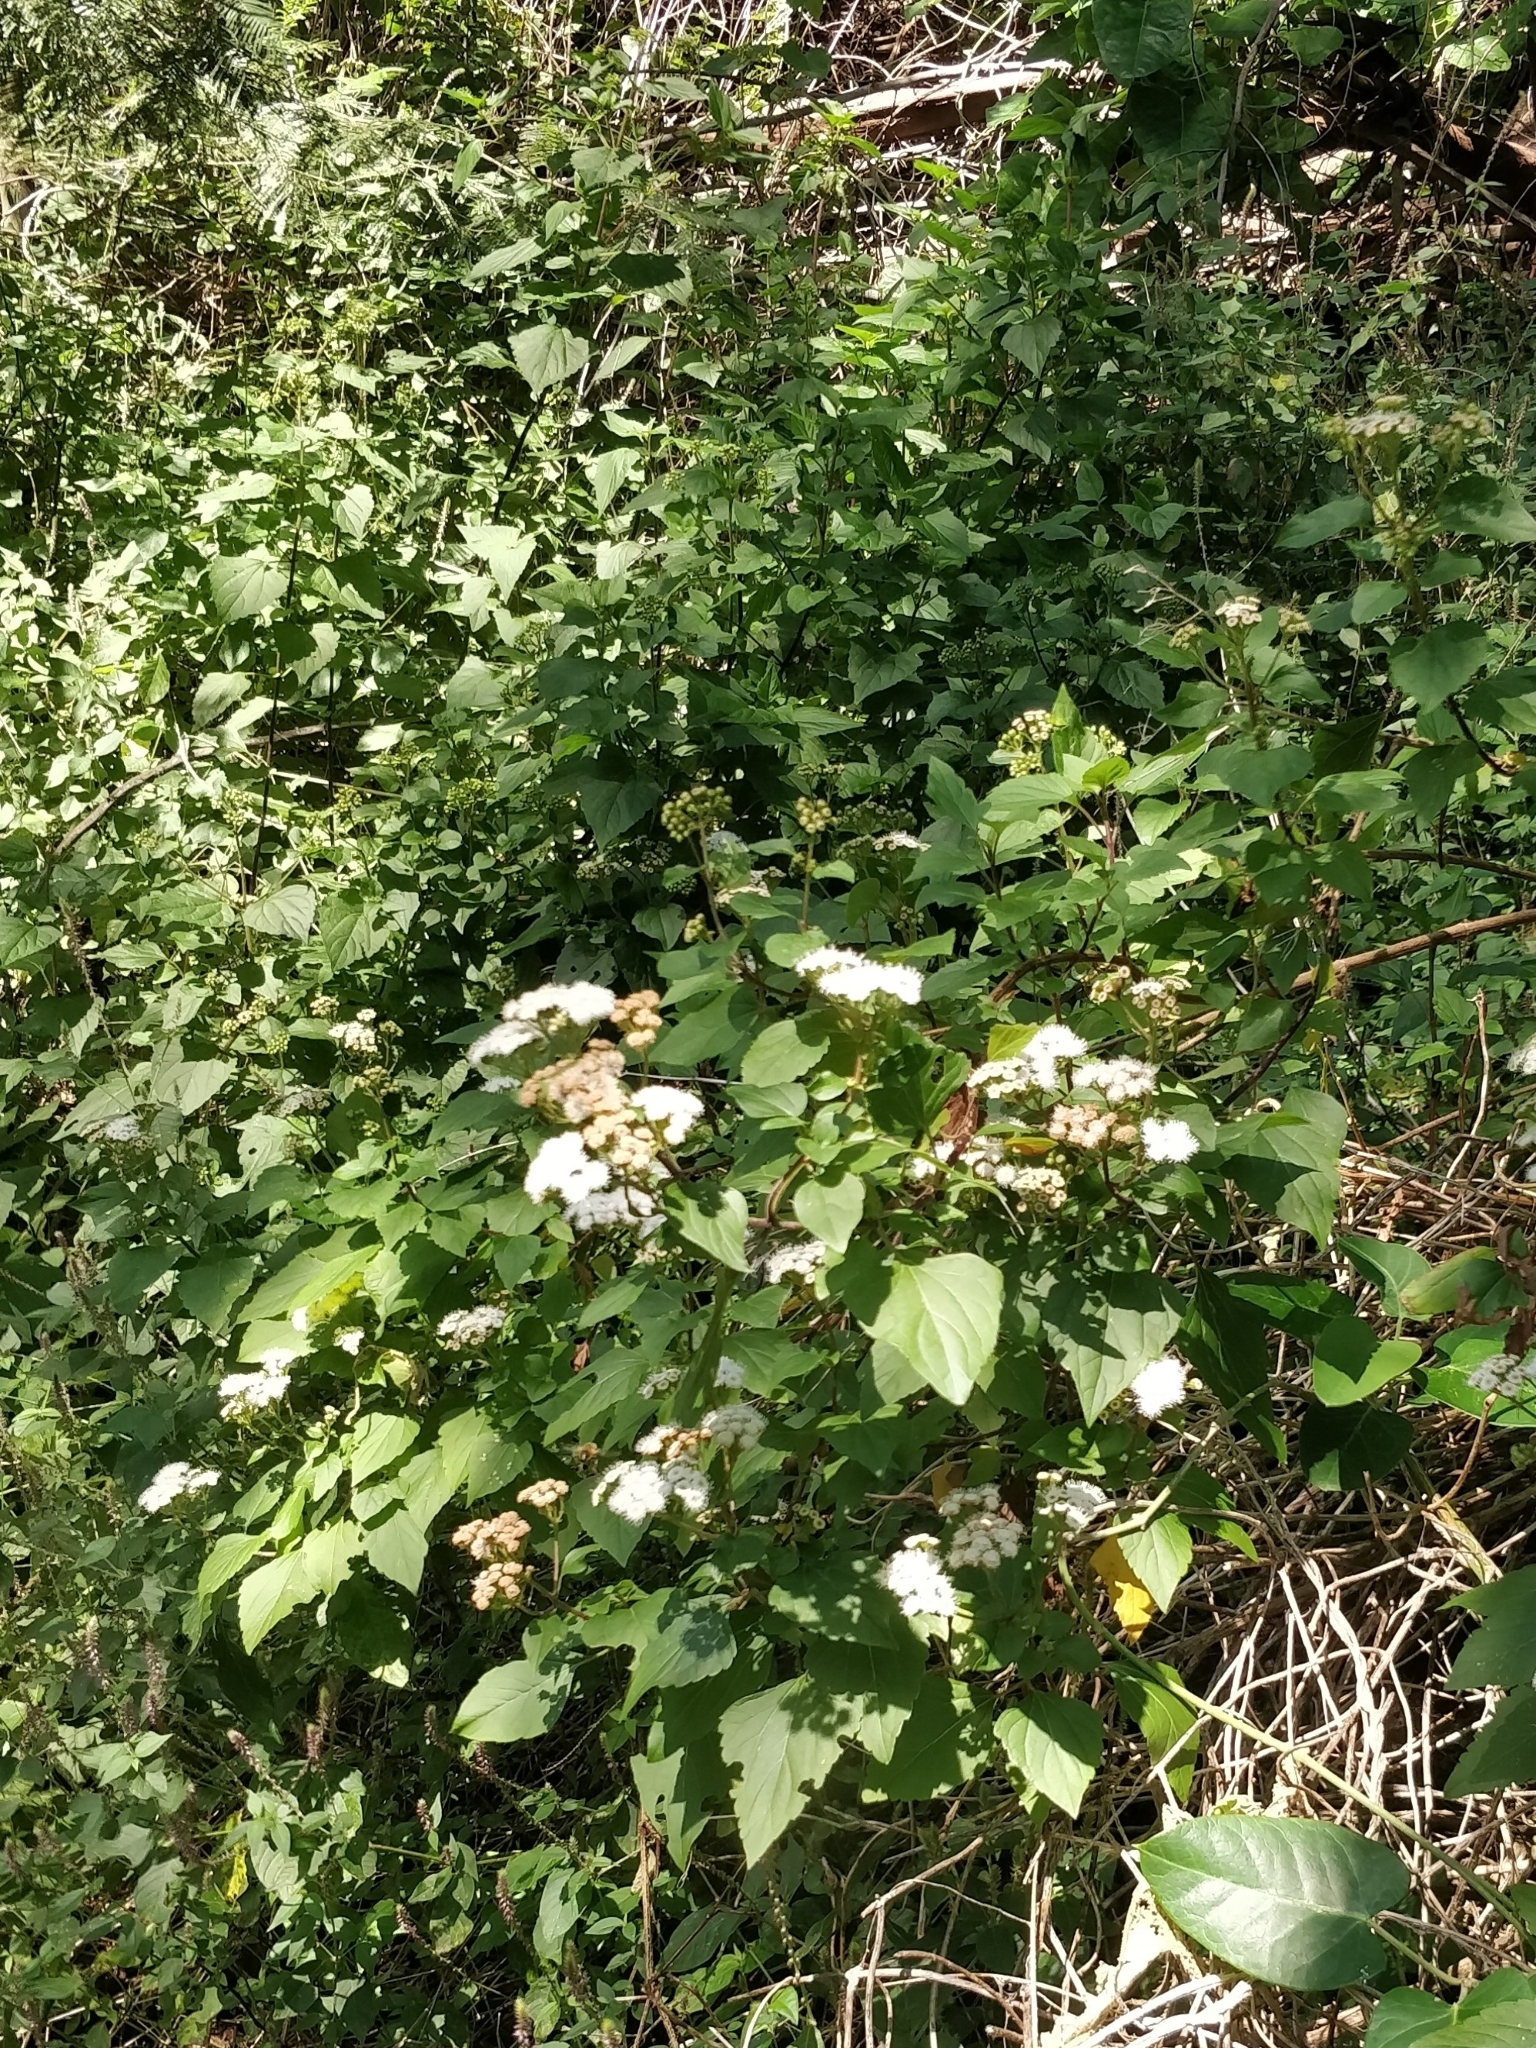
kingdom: Plantae
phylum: Tracheophyta
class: Magnoliopsida
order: Asterales
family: Asteraceae
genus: Ageratina
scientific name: Ageratina adenophora
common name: Sticky snakeroot
